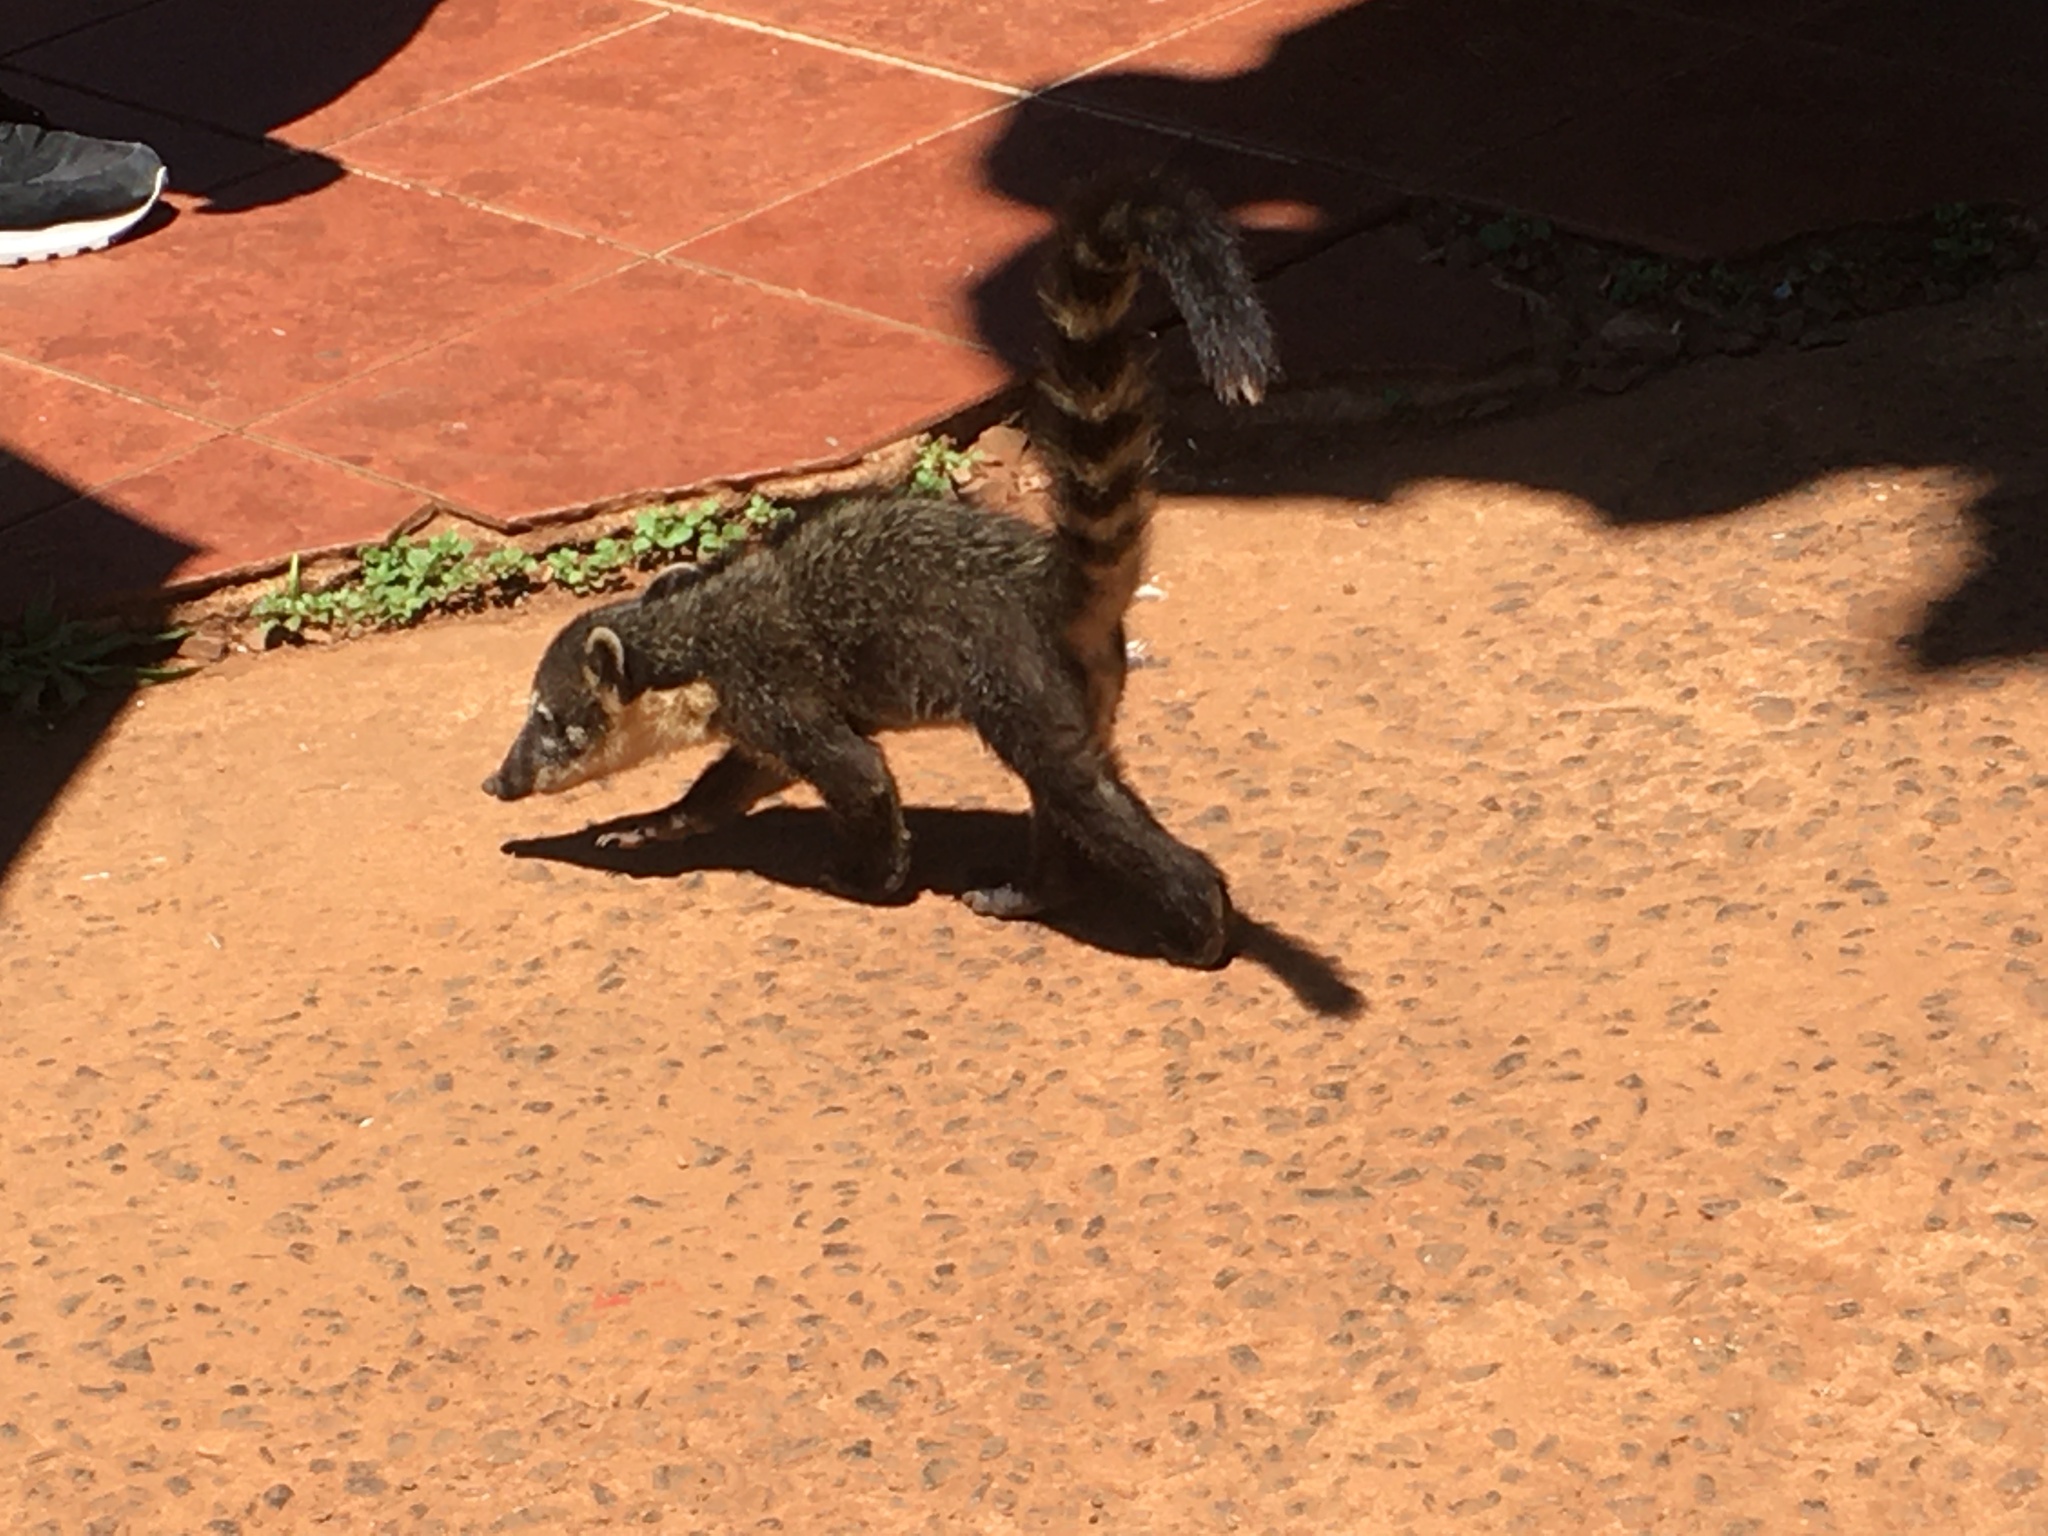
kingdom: Animalia
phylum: Chordata
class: Mammalia
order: Carnivora
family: Procyonidae
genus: Nasua
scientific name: Nasua nasua
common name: South american coati
